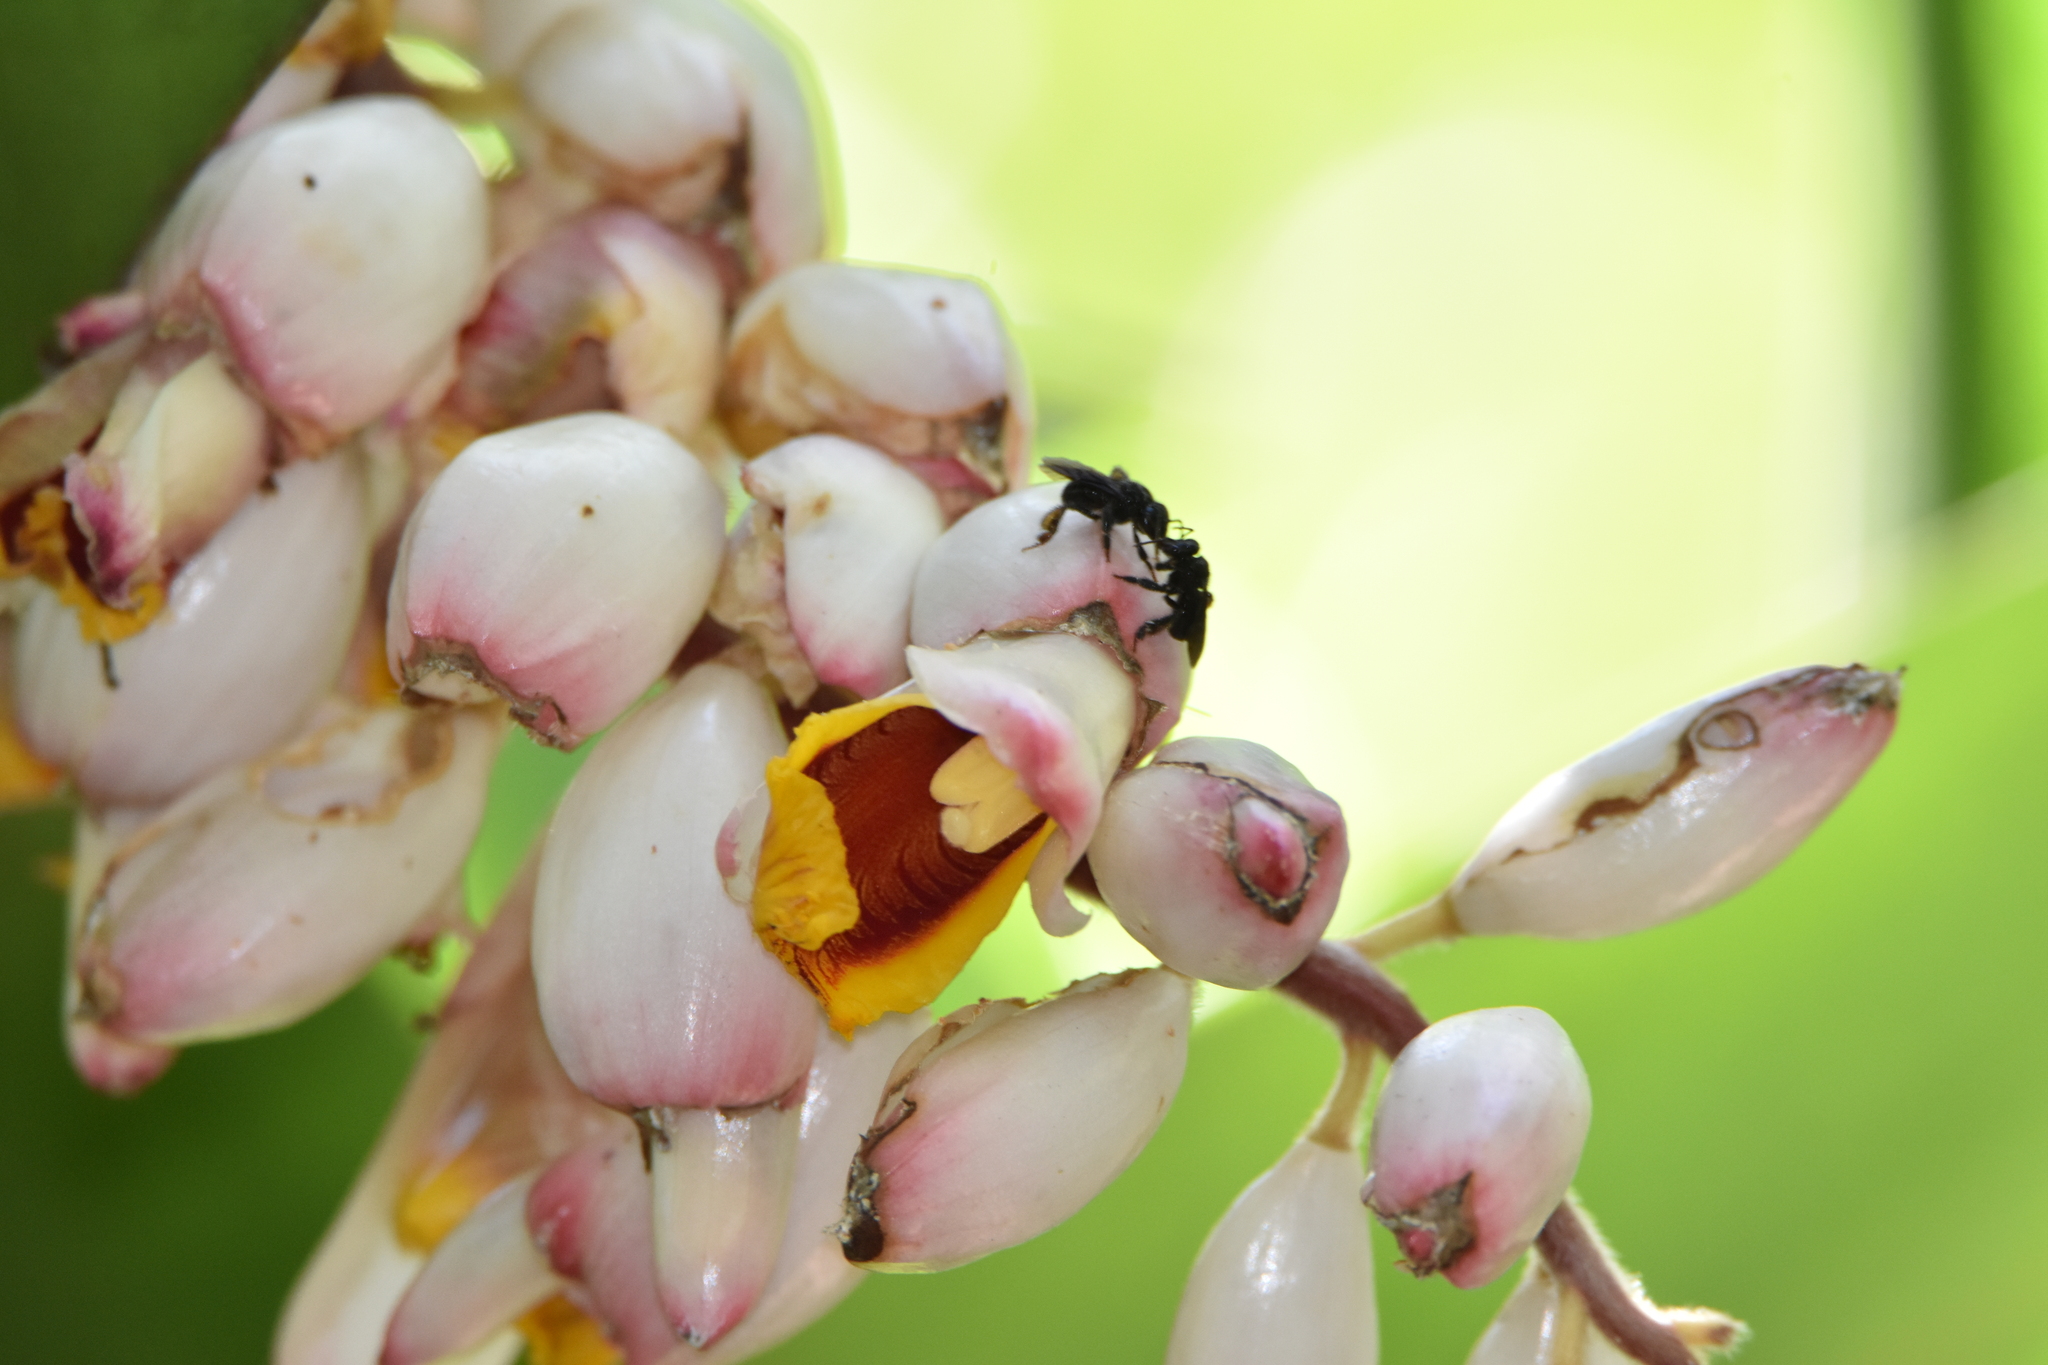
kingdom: Animalia
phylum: Arthropoda
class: Insecta
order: Hymenoptera
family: Apidae
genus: Trigona
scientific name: Trigona spinipes
